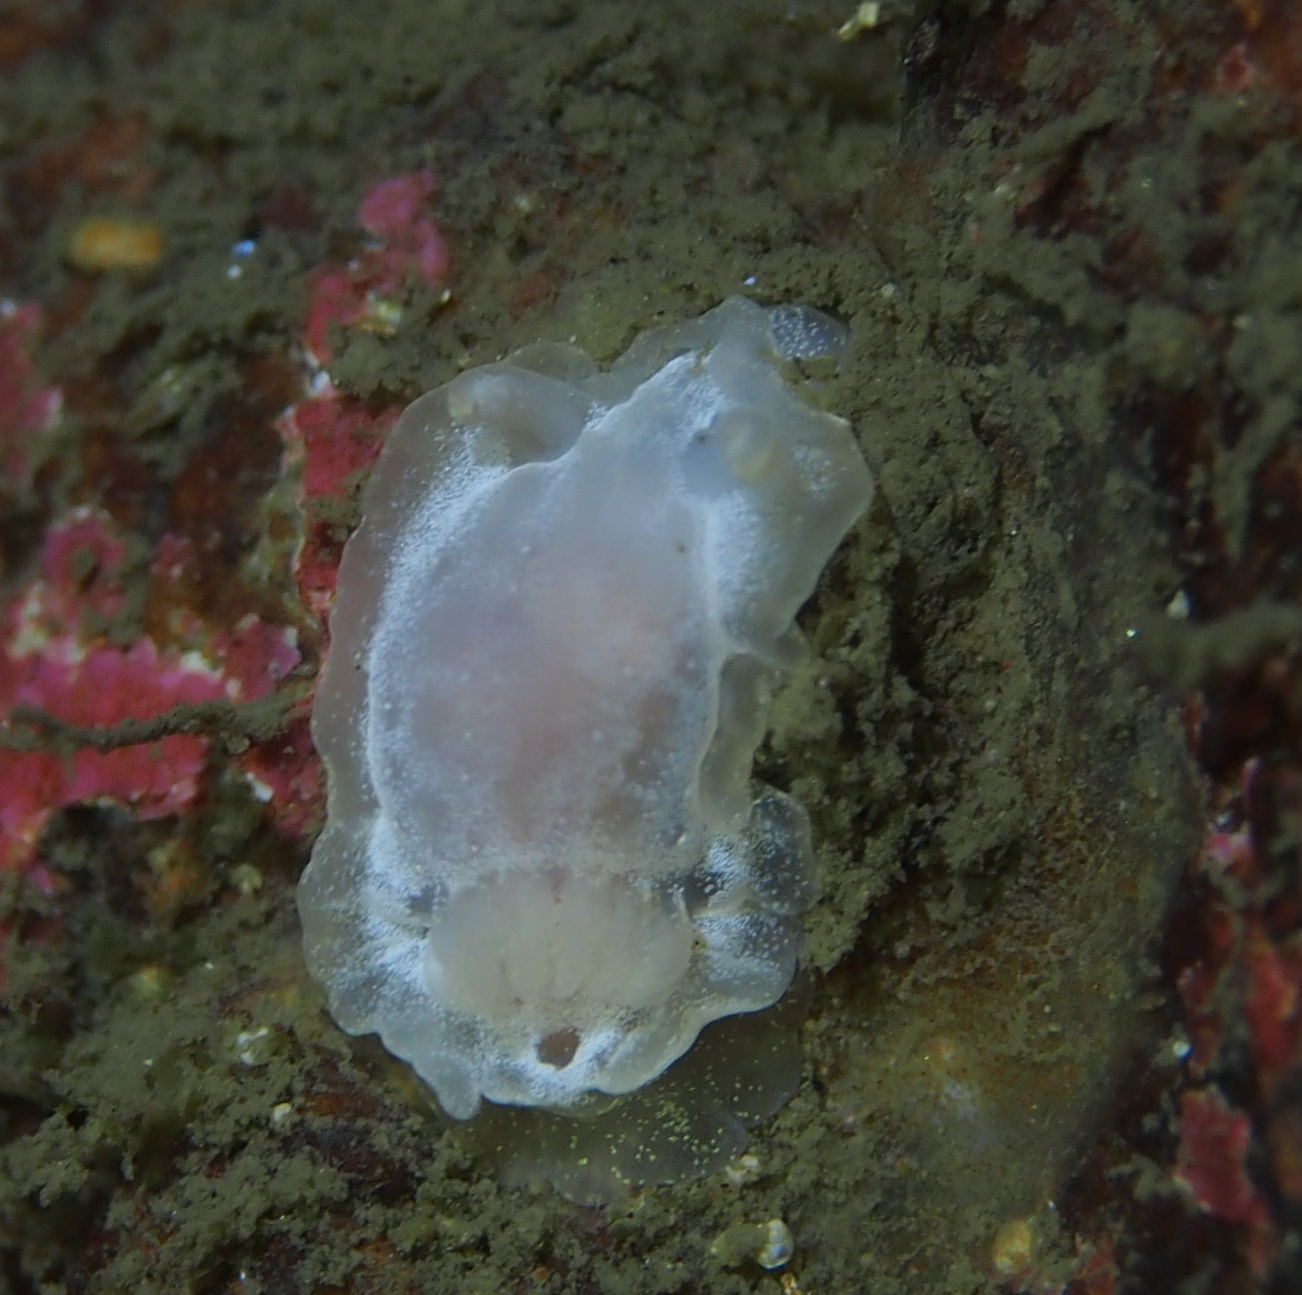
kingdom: Animalia
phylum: Mollusca
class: Gastropoda
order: Nudibranchia
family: Goniodorididae
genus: Okenia
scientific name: Okenia
